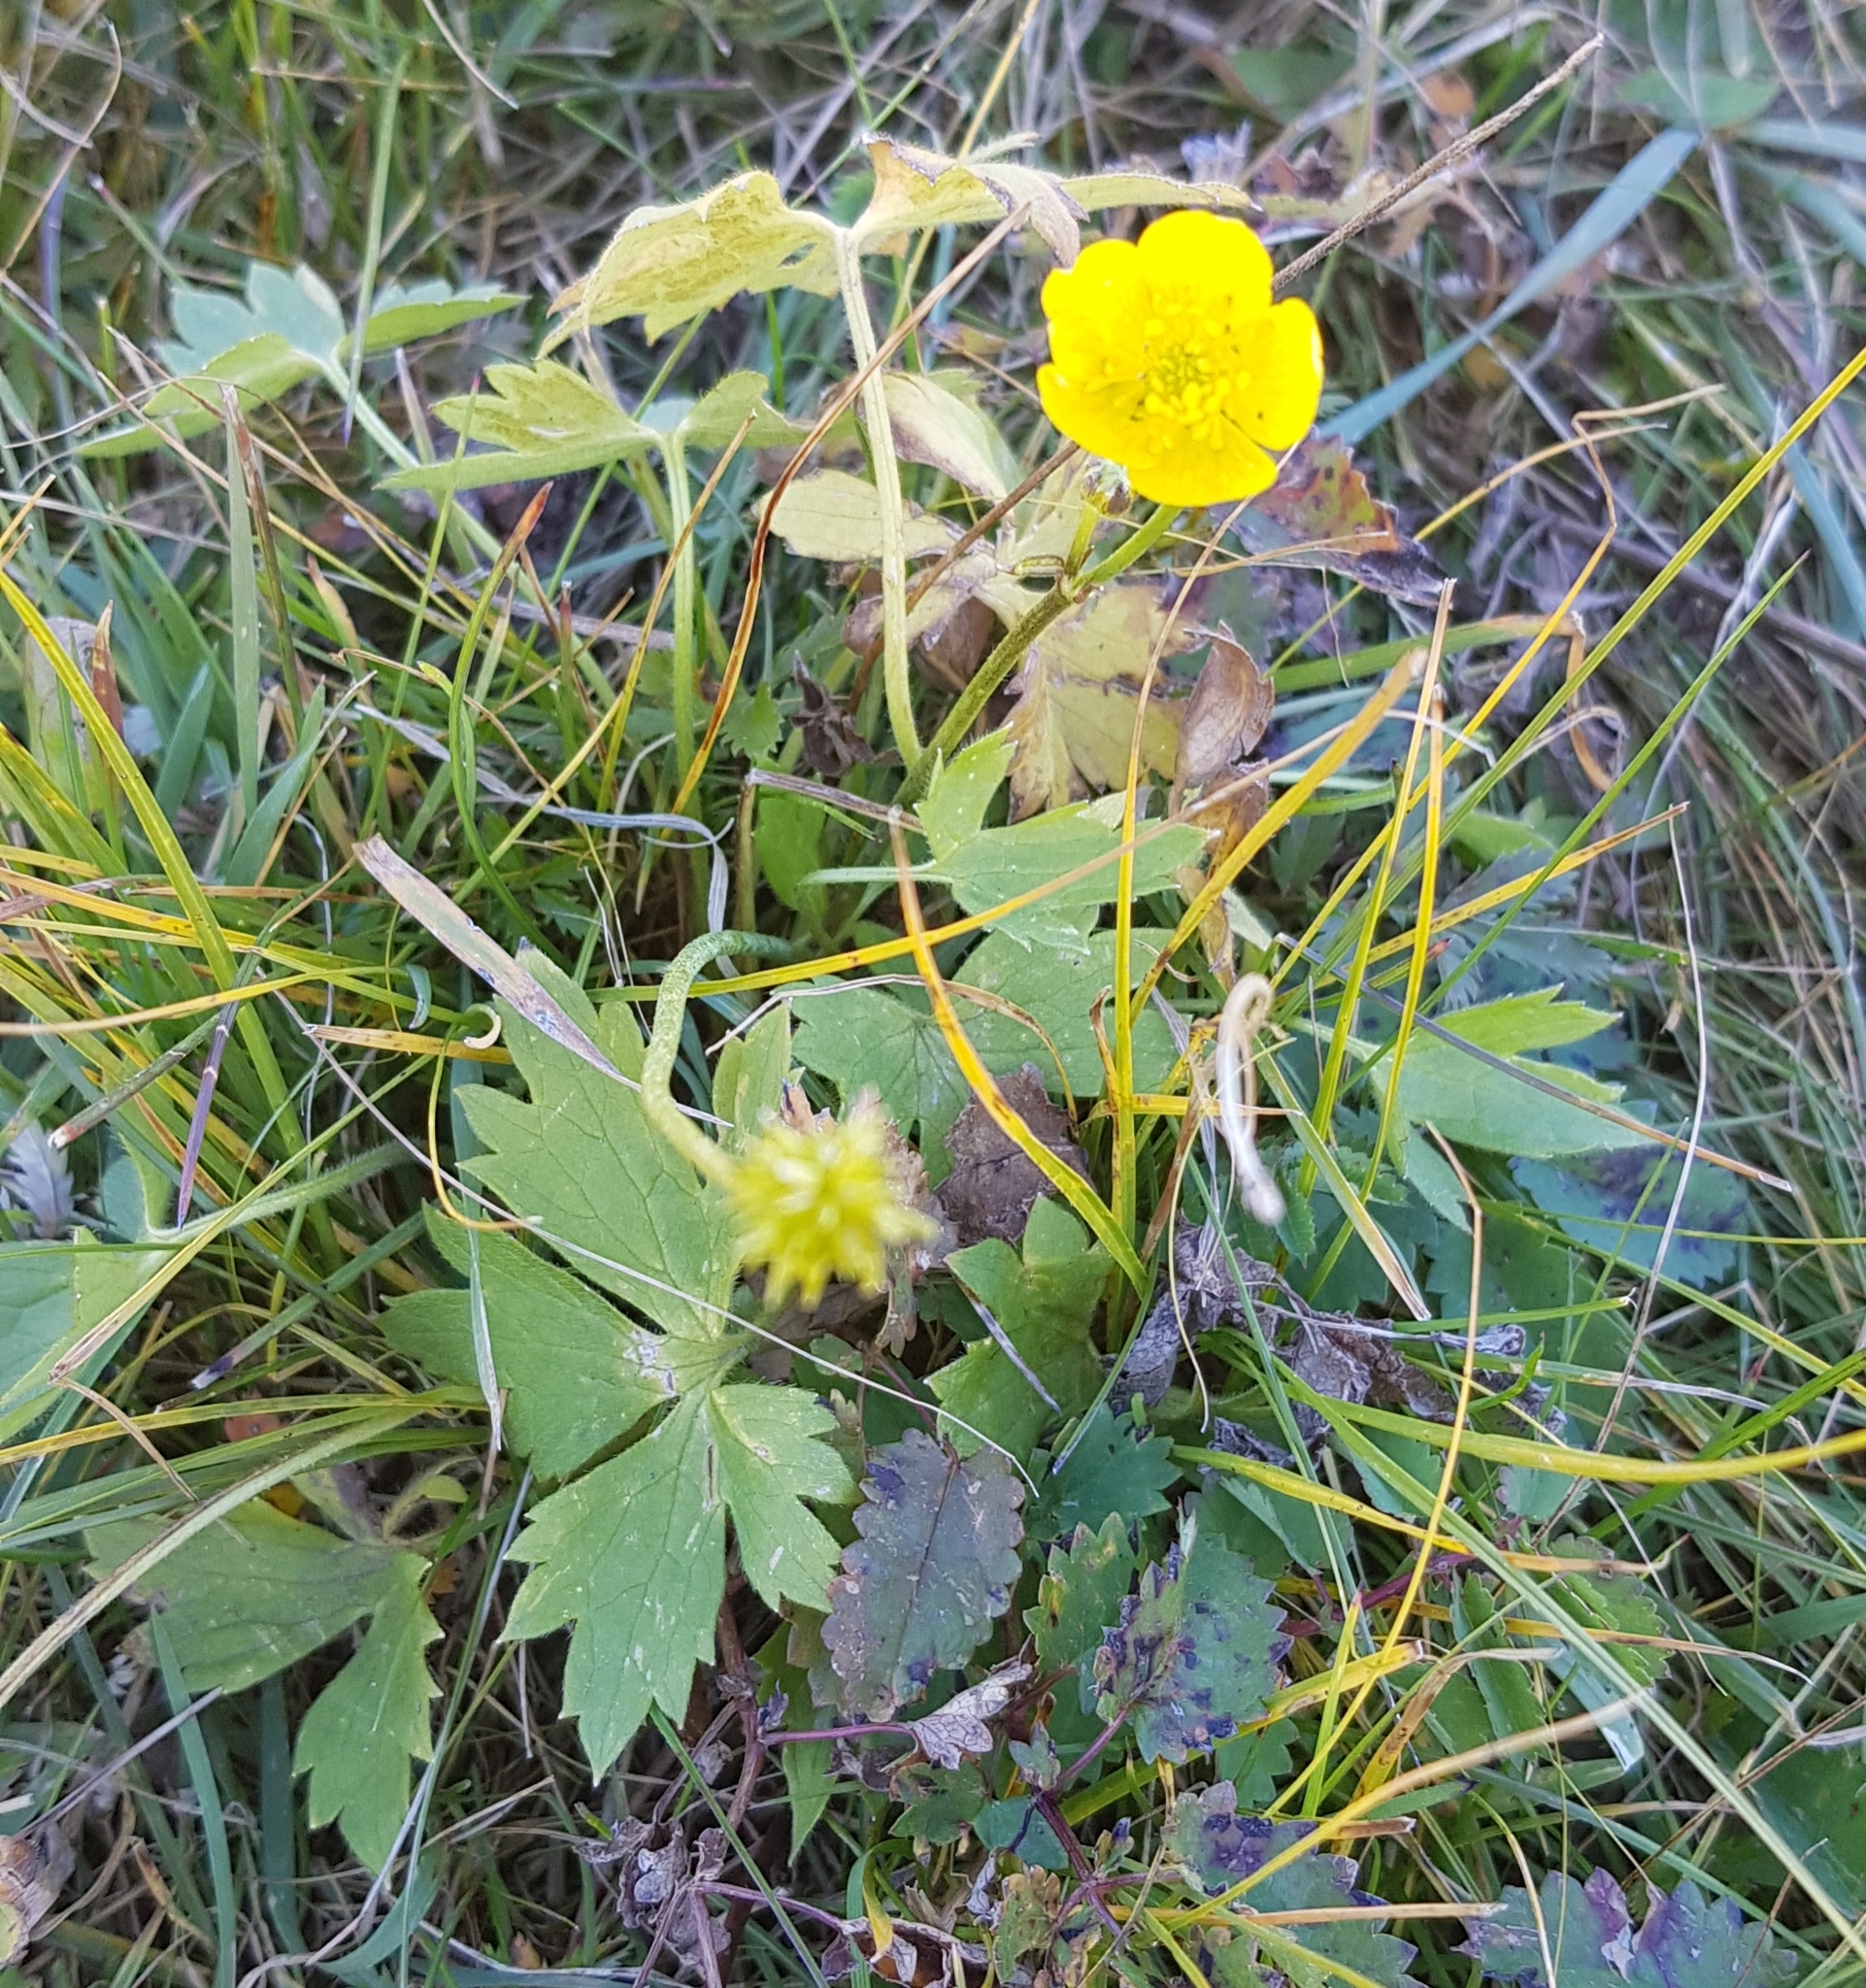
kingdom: Plantae
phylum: Tracheophyta
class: Magnoliopsida
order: Ranunculales
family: Ranunculaceae
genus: Ranunculus
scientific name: Ranunculus repens
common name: Creeping buttercup
